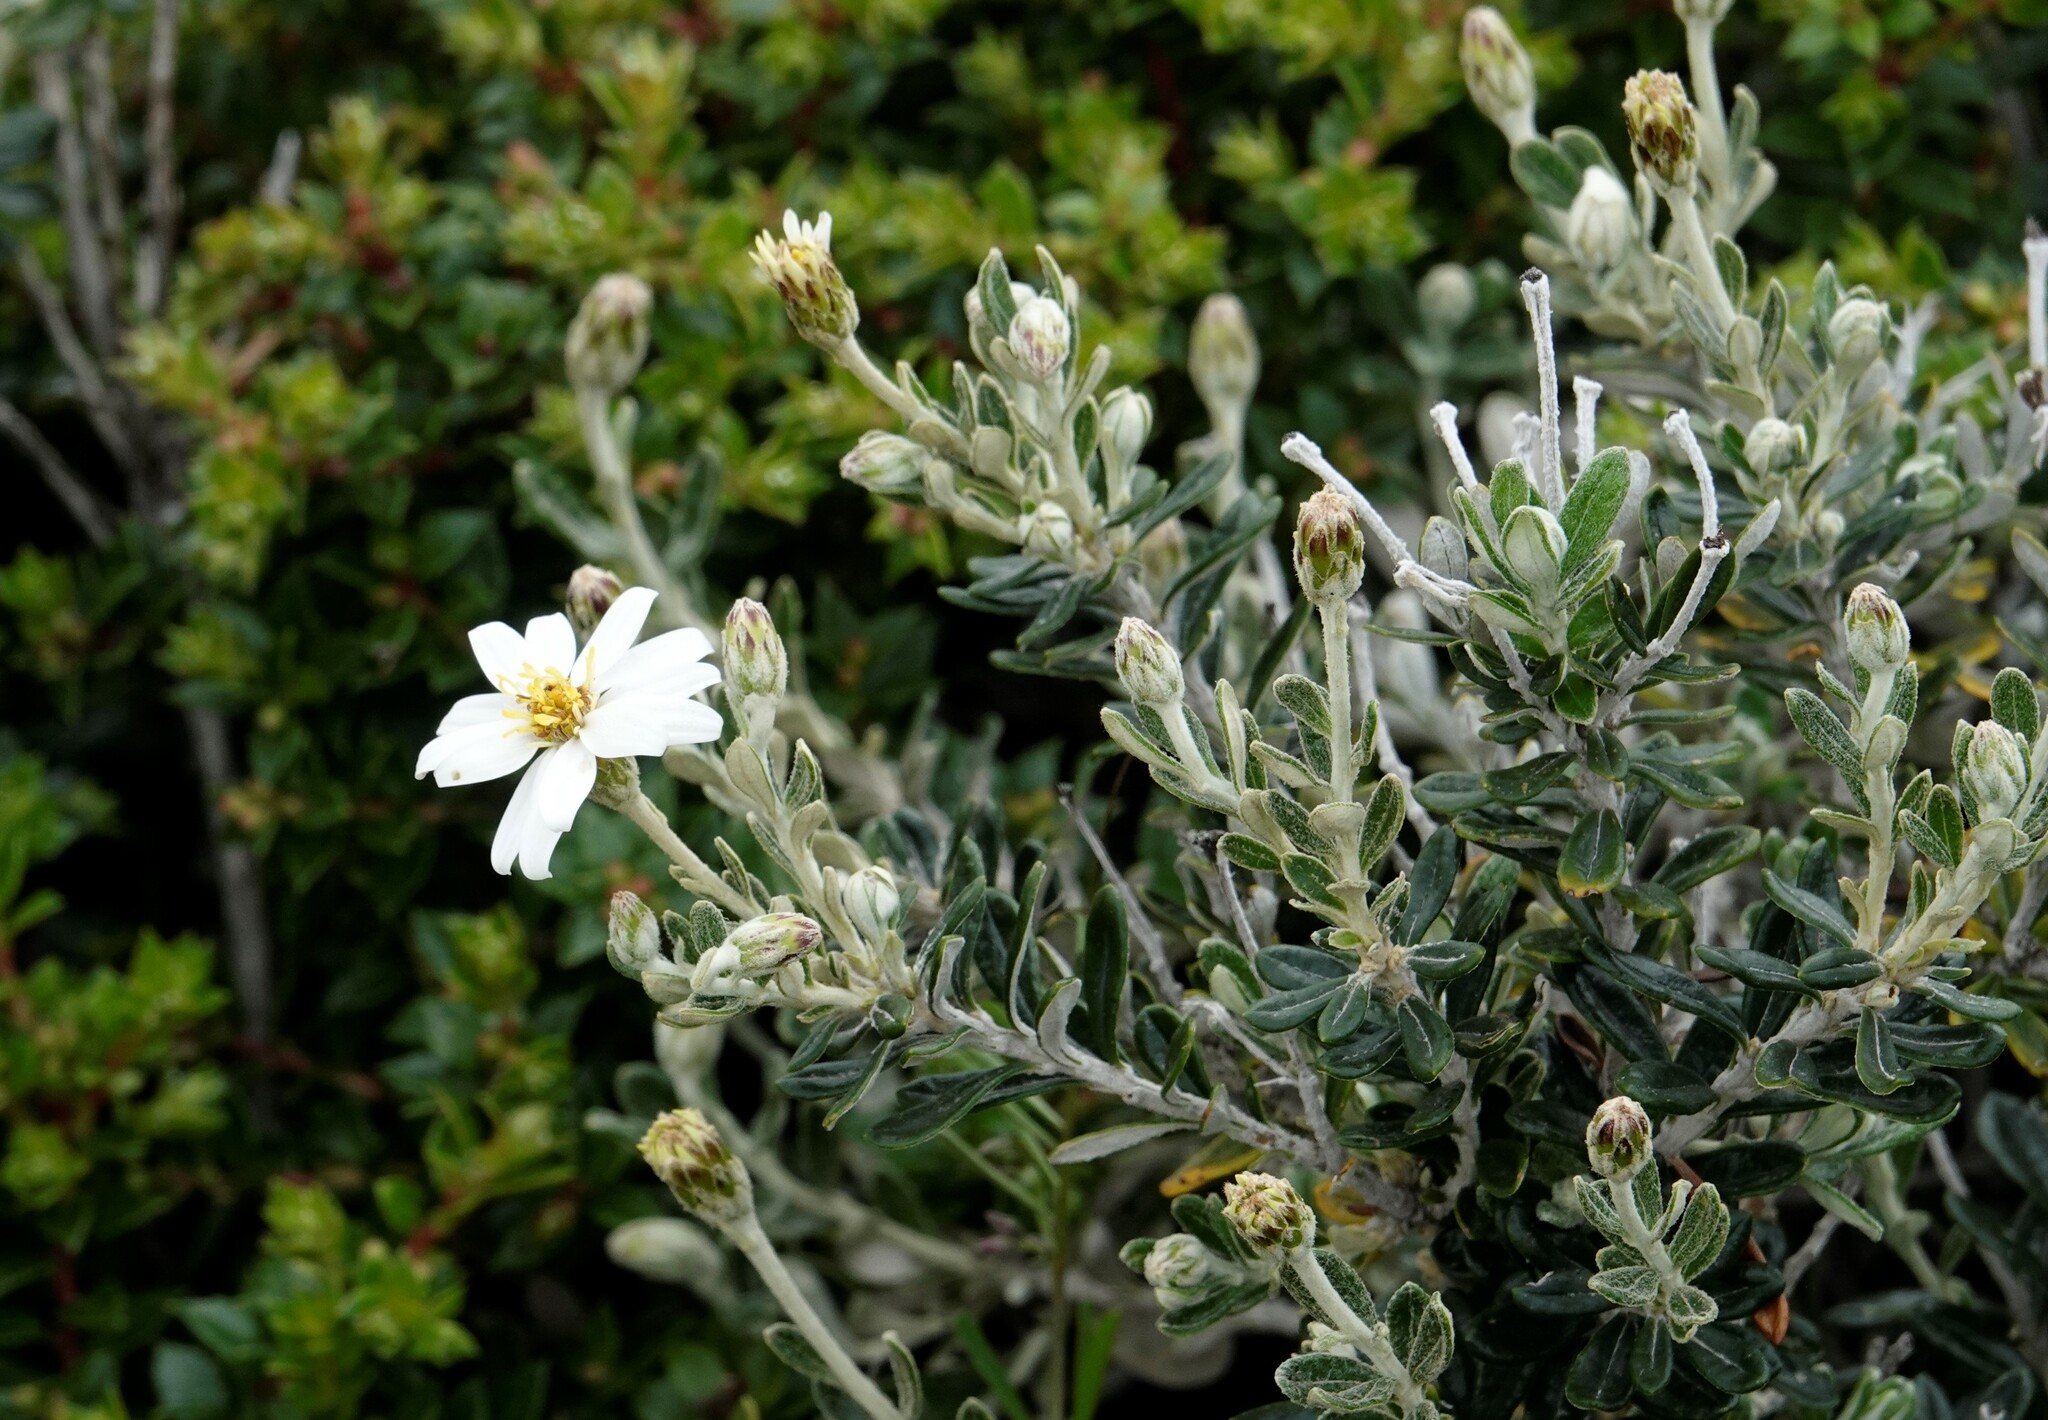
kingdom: Plantae
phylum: Tracheophyta
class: Magnoliopsida
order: Asterales
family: Asteraceae
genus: Chiliotrichum
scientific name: Chiliotrichum diffusum
